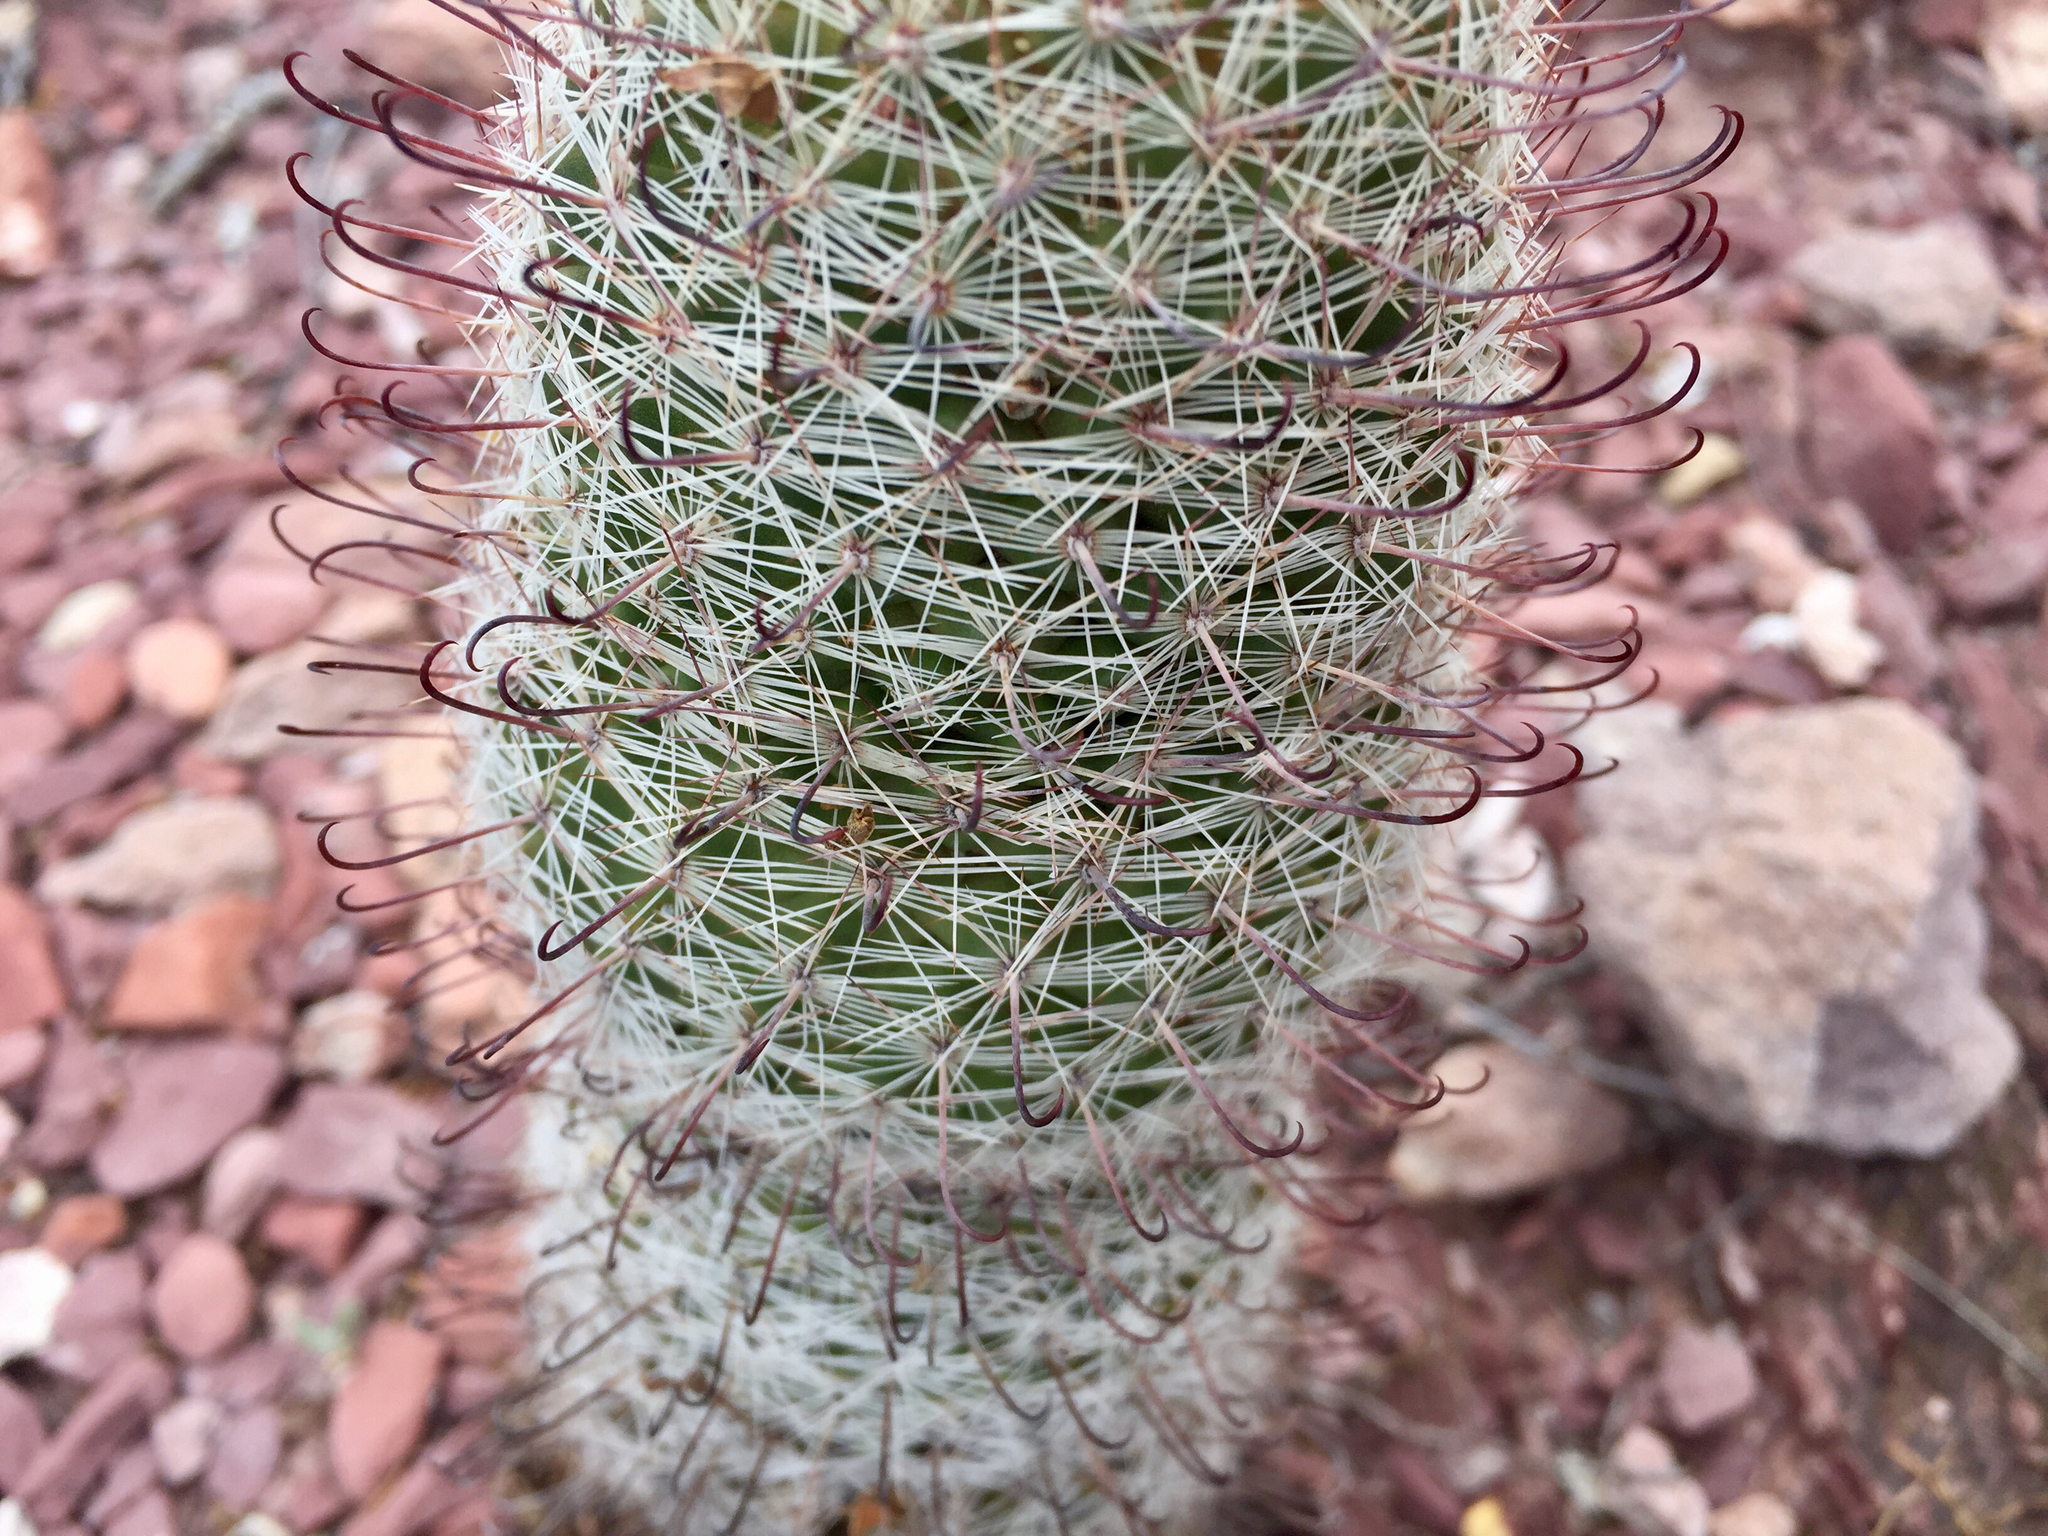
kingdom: Plantae
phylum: Tracheophyta
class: Magnoliopsida
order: Caryophyllales
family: Cactaceae
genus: Cochemiea
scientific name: Cochemiea grahamii
